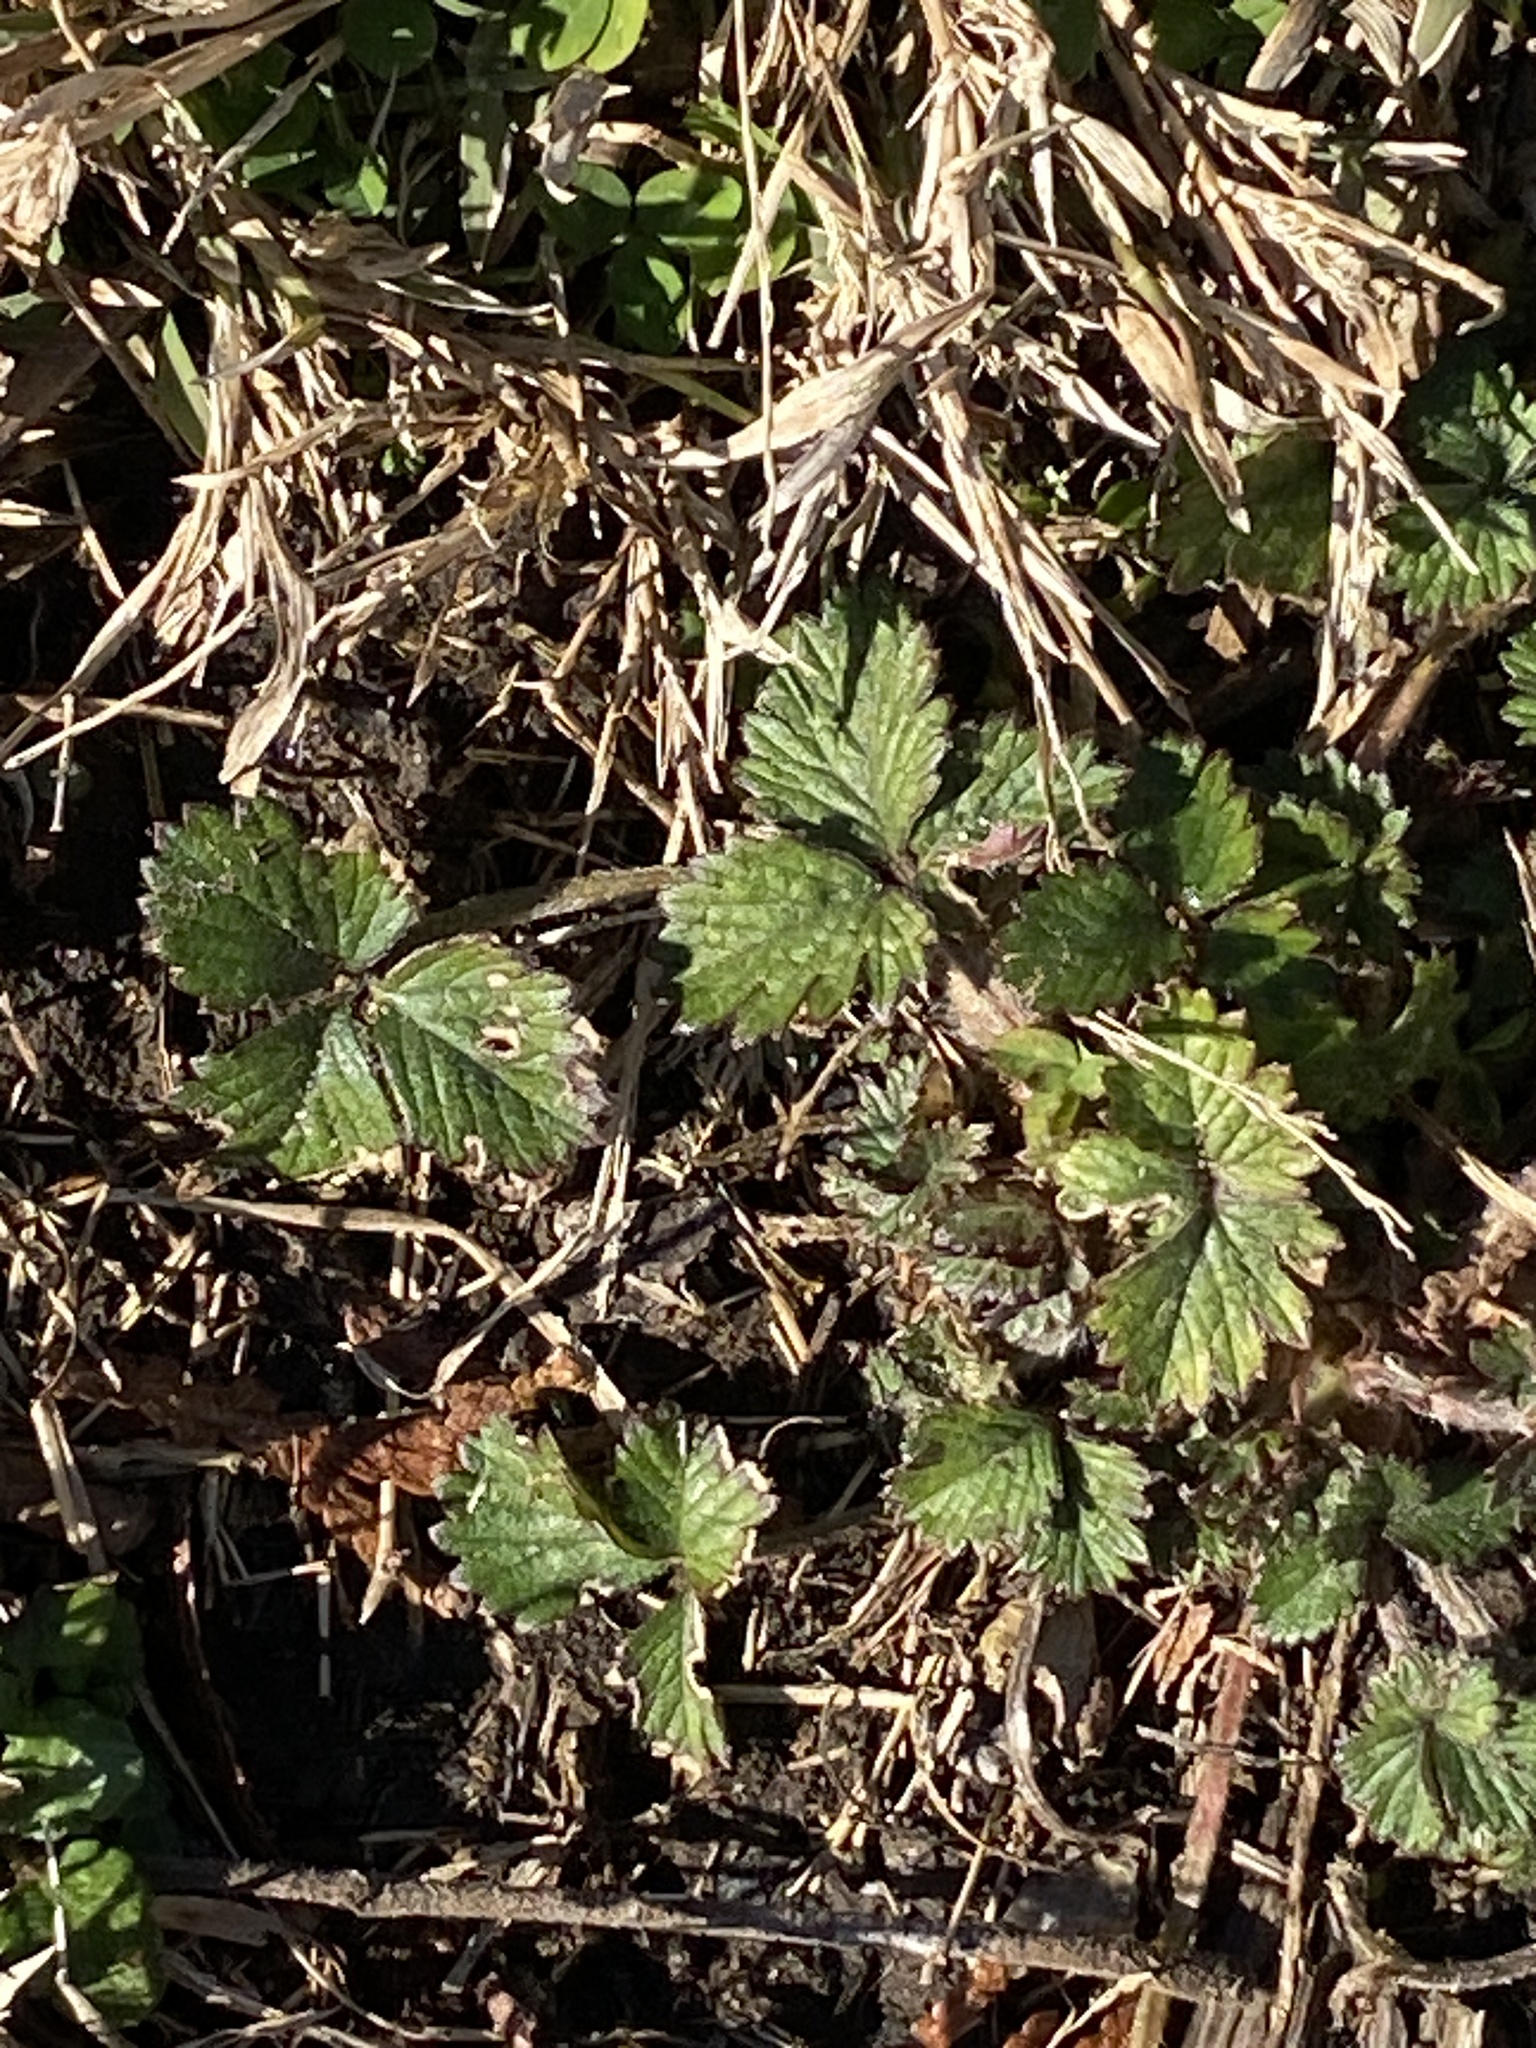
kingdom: Plantae
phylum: Tracheophyta
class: Magnoliopsida
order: Rosales
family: Rosaceae
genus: Potentilla
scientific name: Potentilla indica
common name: Yellow-flowered strawberry
